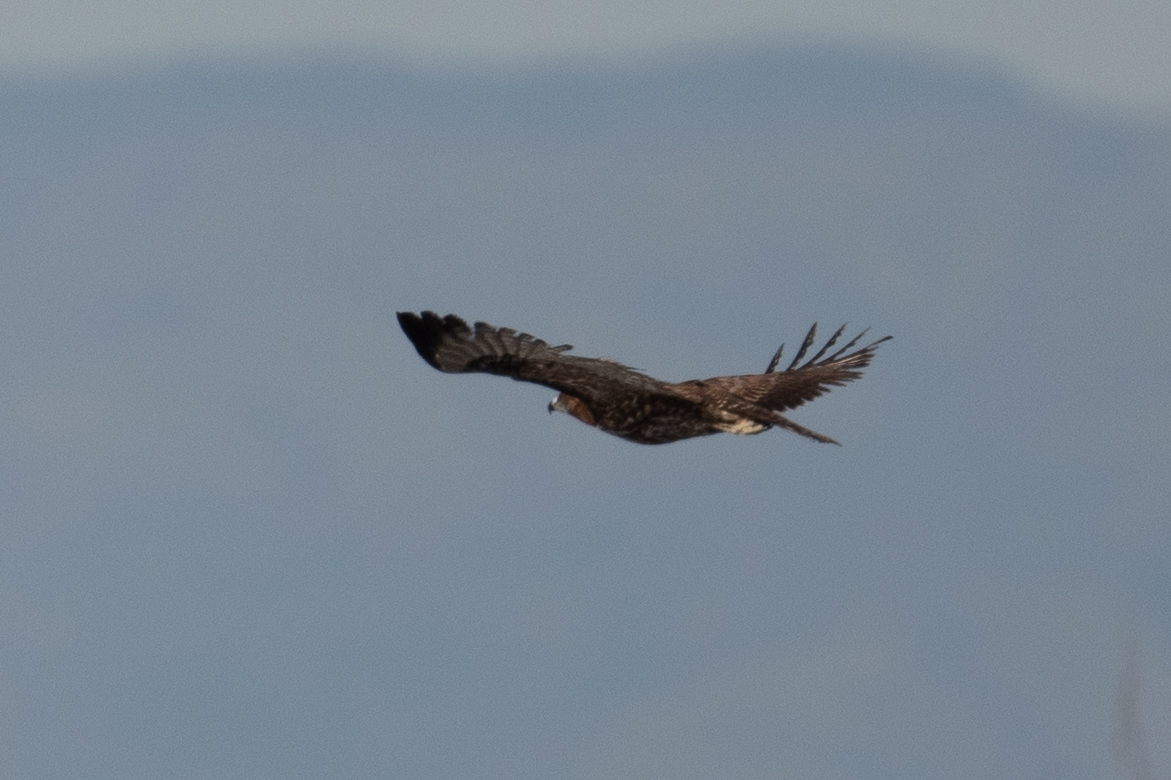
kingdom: Animalia
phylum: Chordata
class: Aves
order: Accipitriformes
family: Accipitridae
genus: Buteo
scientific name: Buteo jamaicensis
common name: Red-tailed hawk
